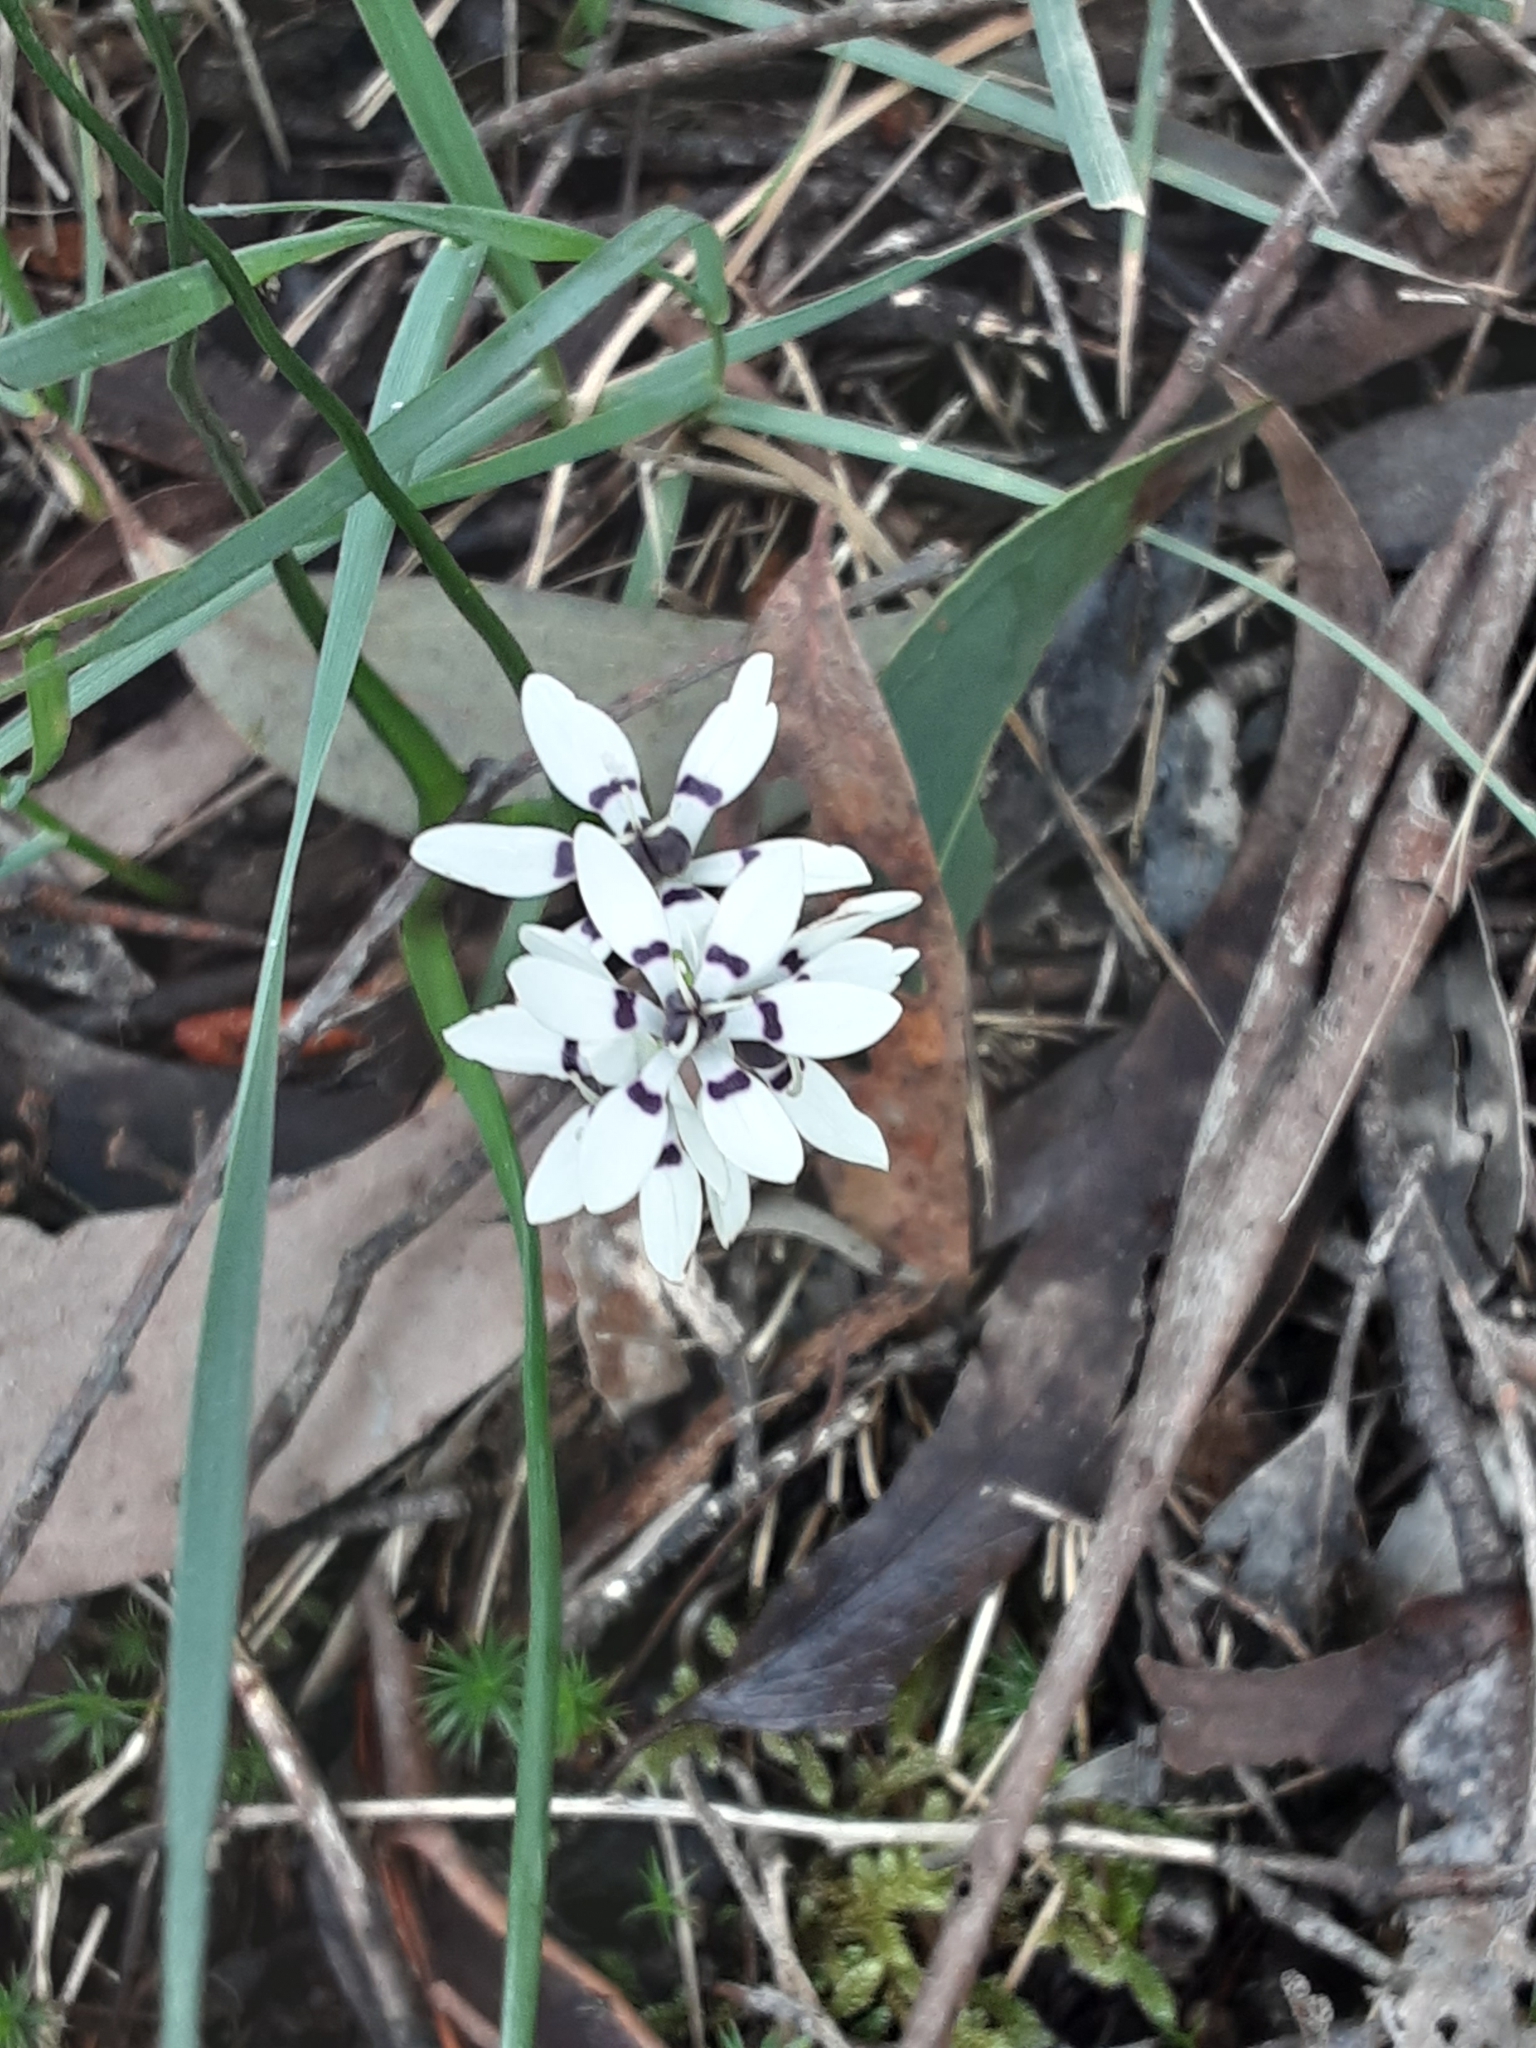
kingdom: Plantae
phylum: Tracheophyta
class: Liliopsida
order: Liliales
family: Colchicaceae
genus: Wurmbea
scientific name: Wurmbea dioica
